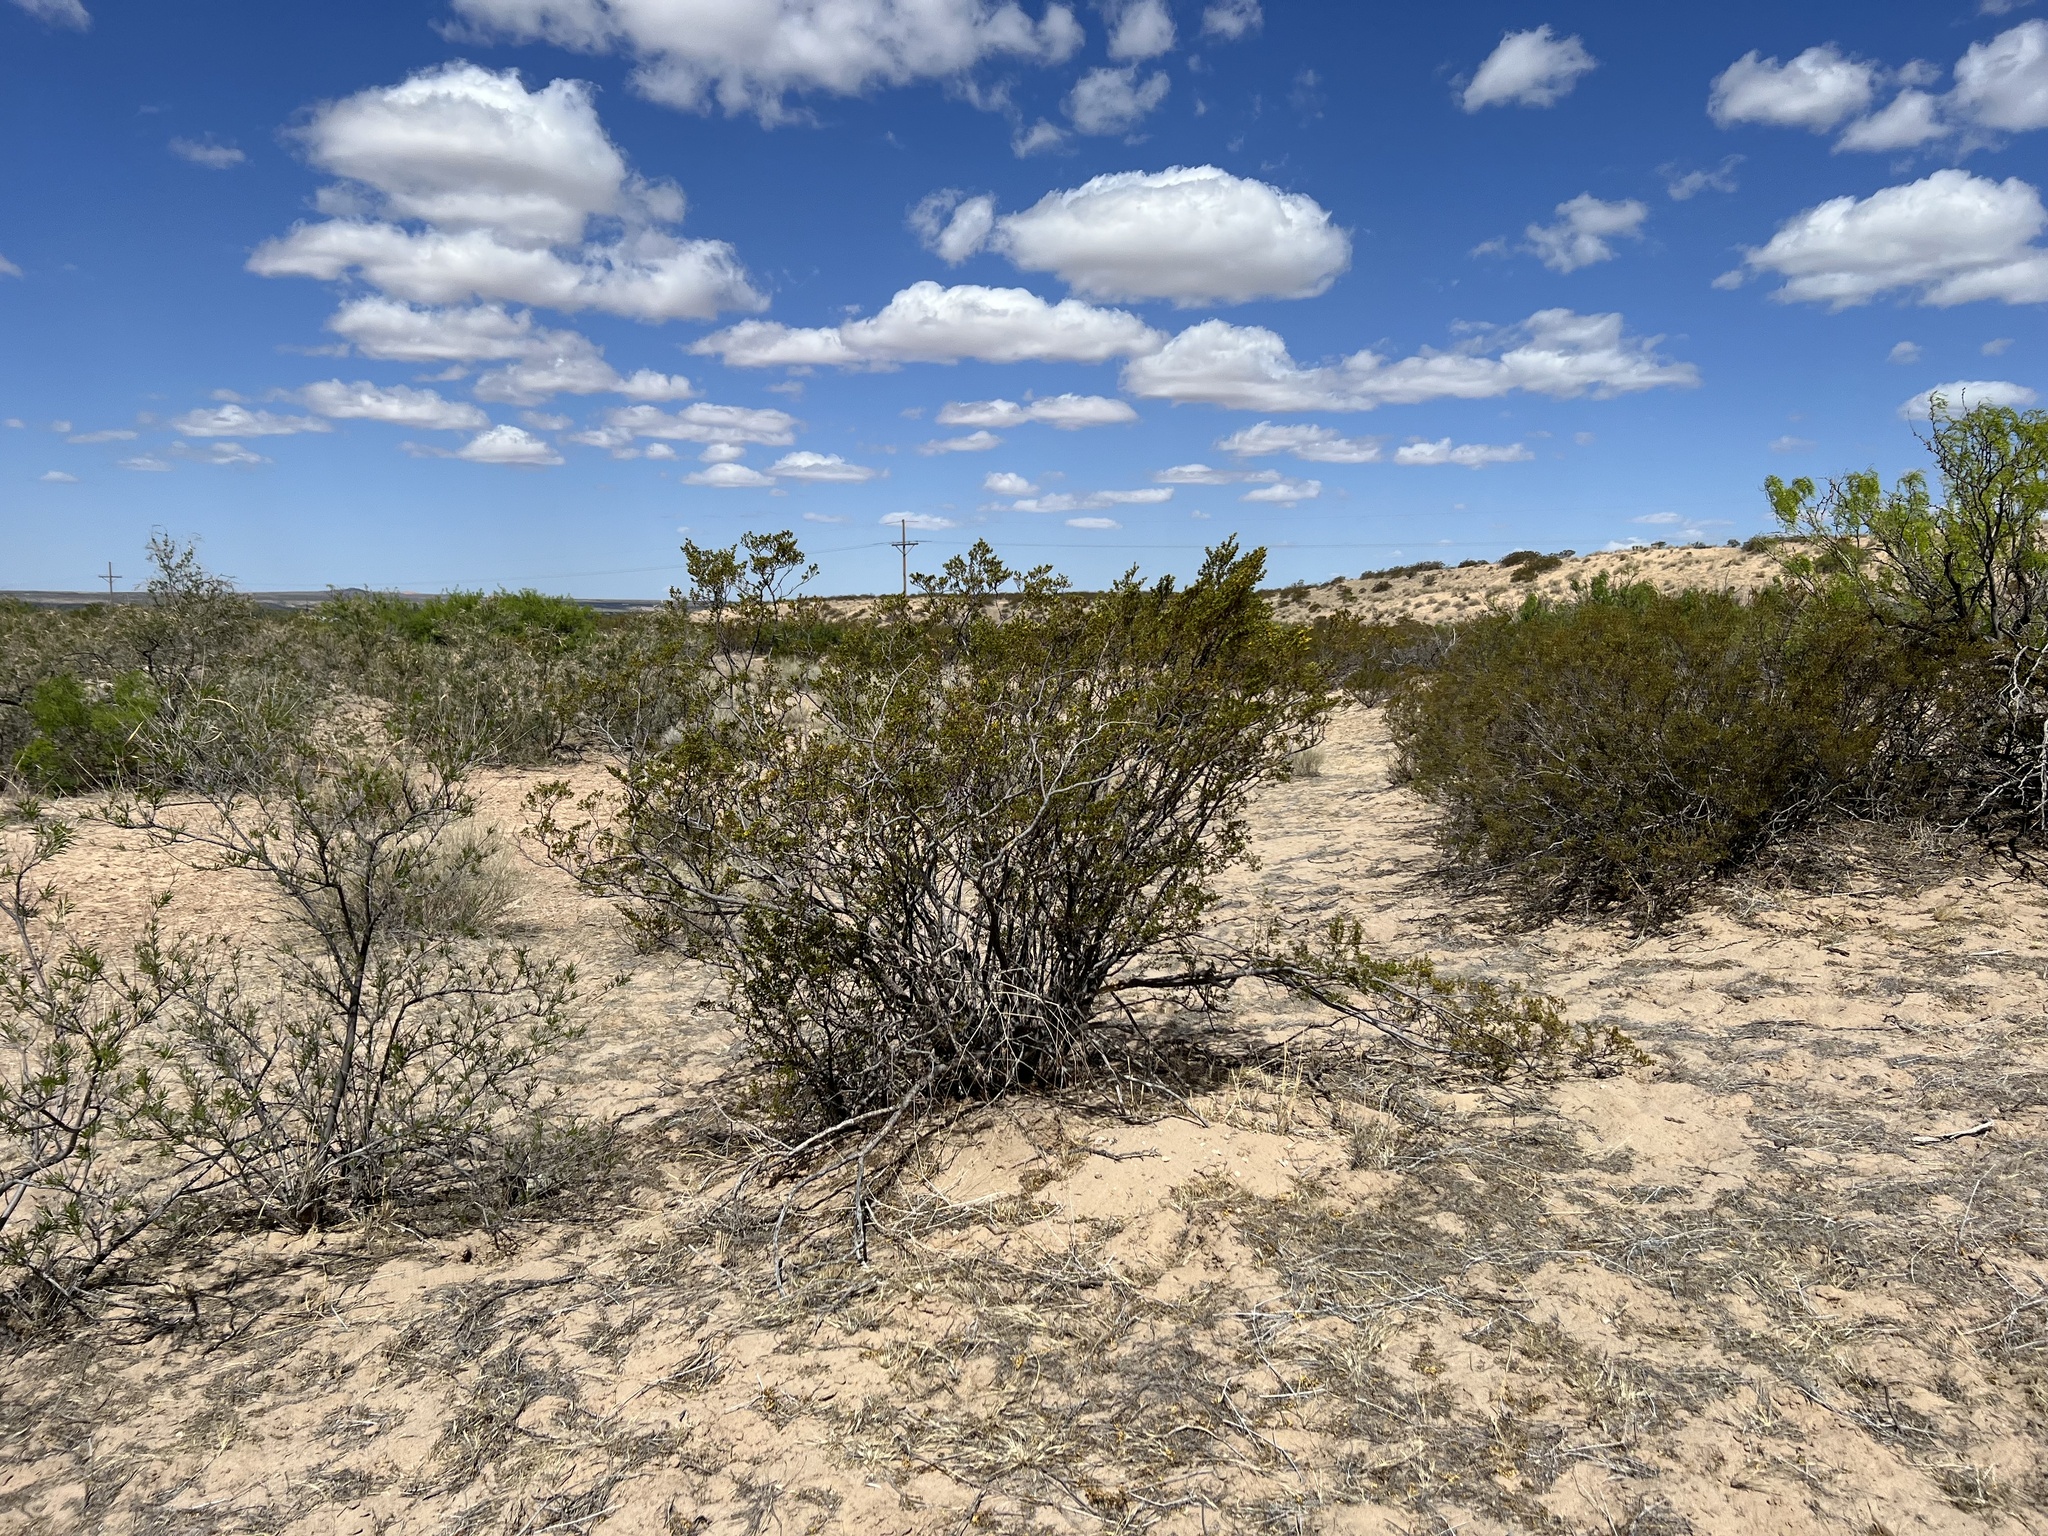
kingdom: Plantae
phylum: Tracheophyta
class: Magnoliopsida
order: Zygophyllales
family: Zygophyllaceae
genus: Larrea
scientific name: Larrea tridentata
